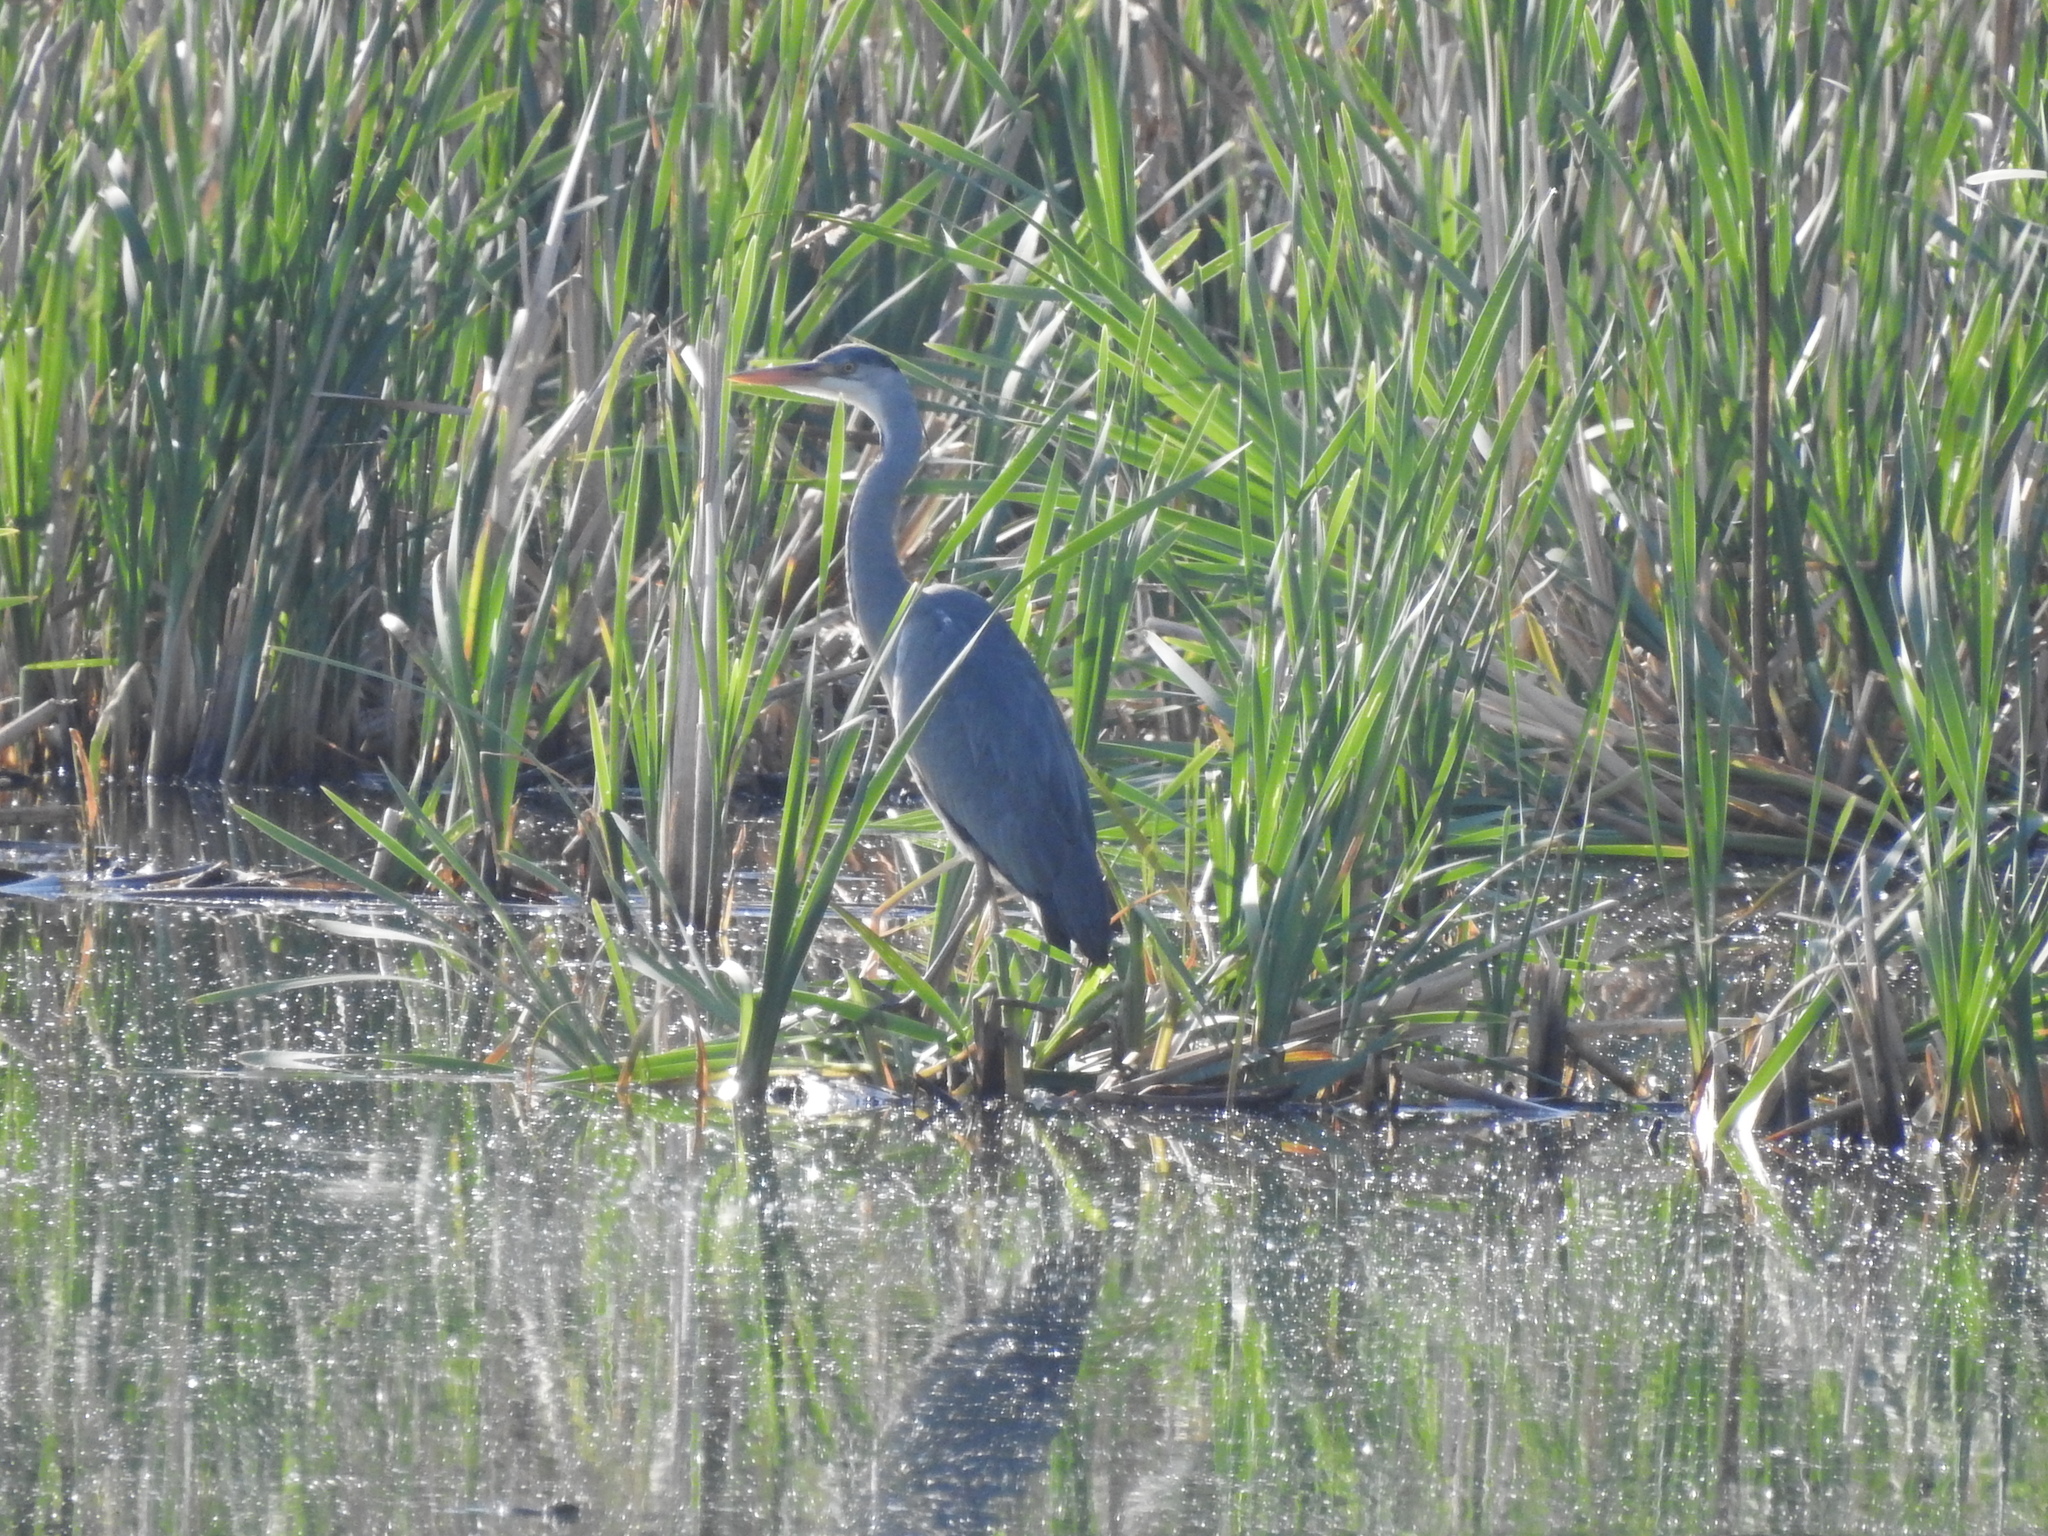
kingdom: Animalia
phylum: Chordata
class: Aves
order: Pelecaniformes
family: Ardeidae
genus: Ardea
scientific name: Ardea cinerea
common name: Grey heron
